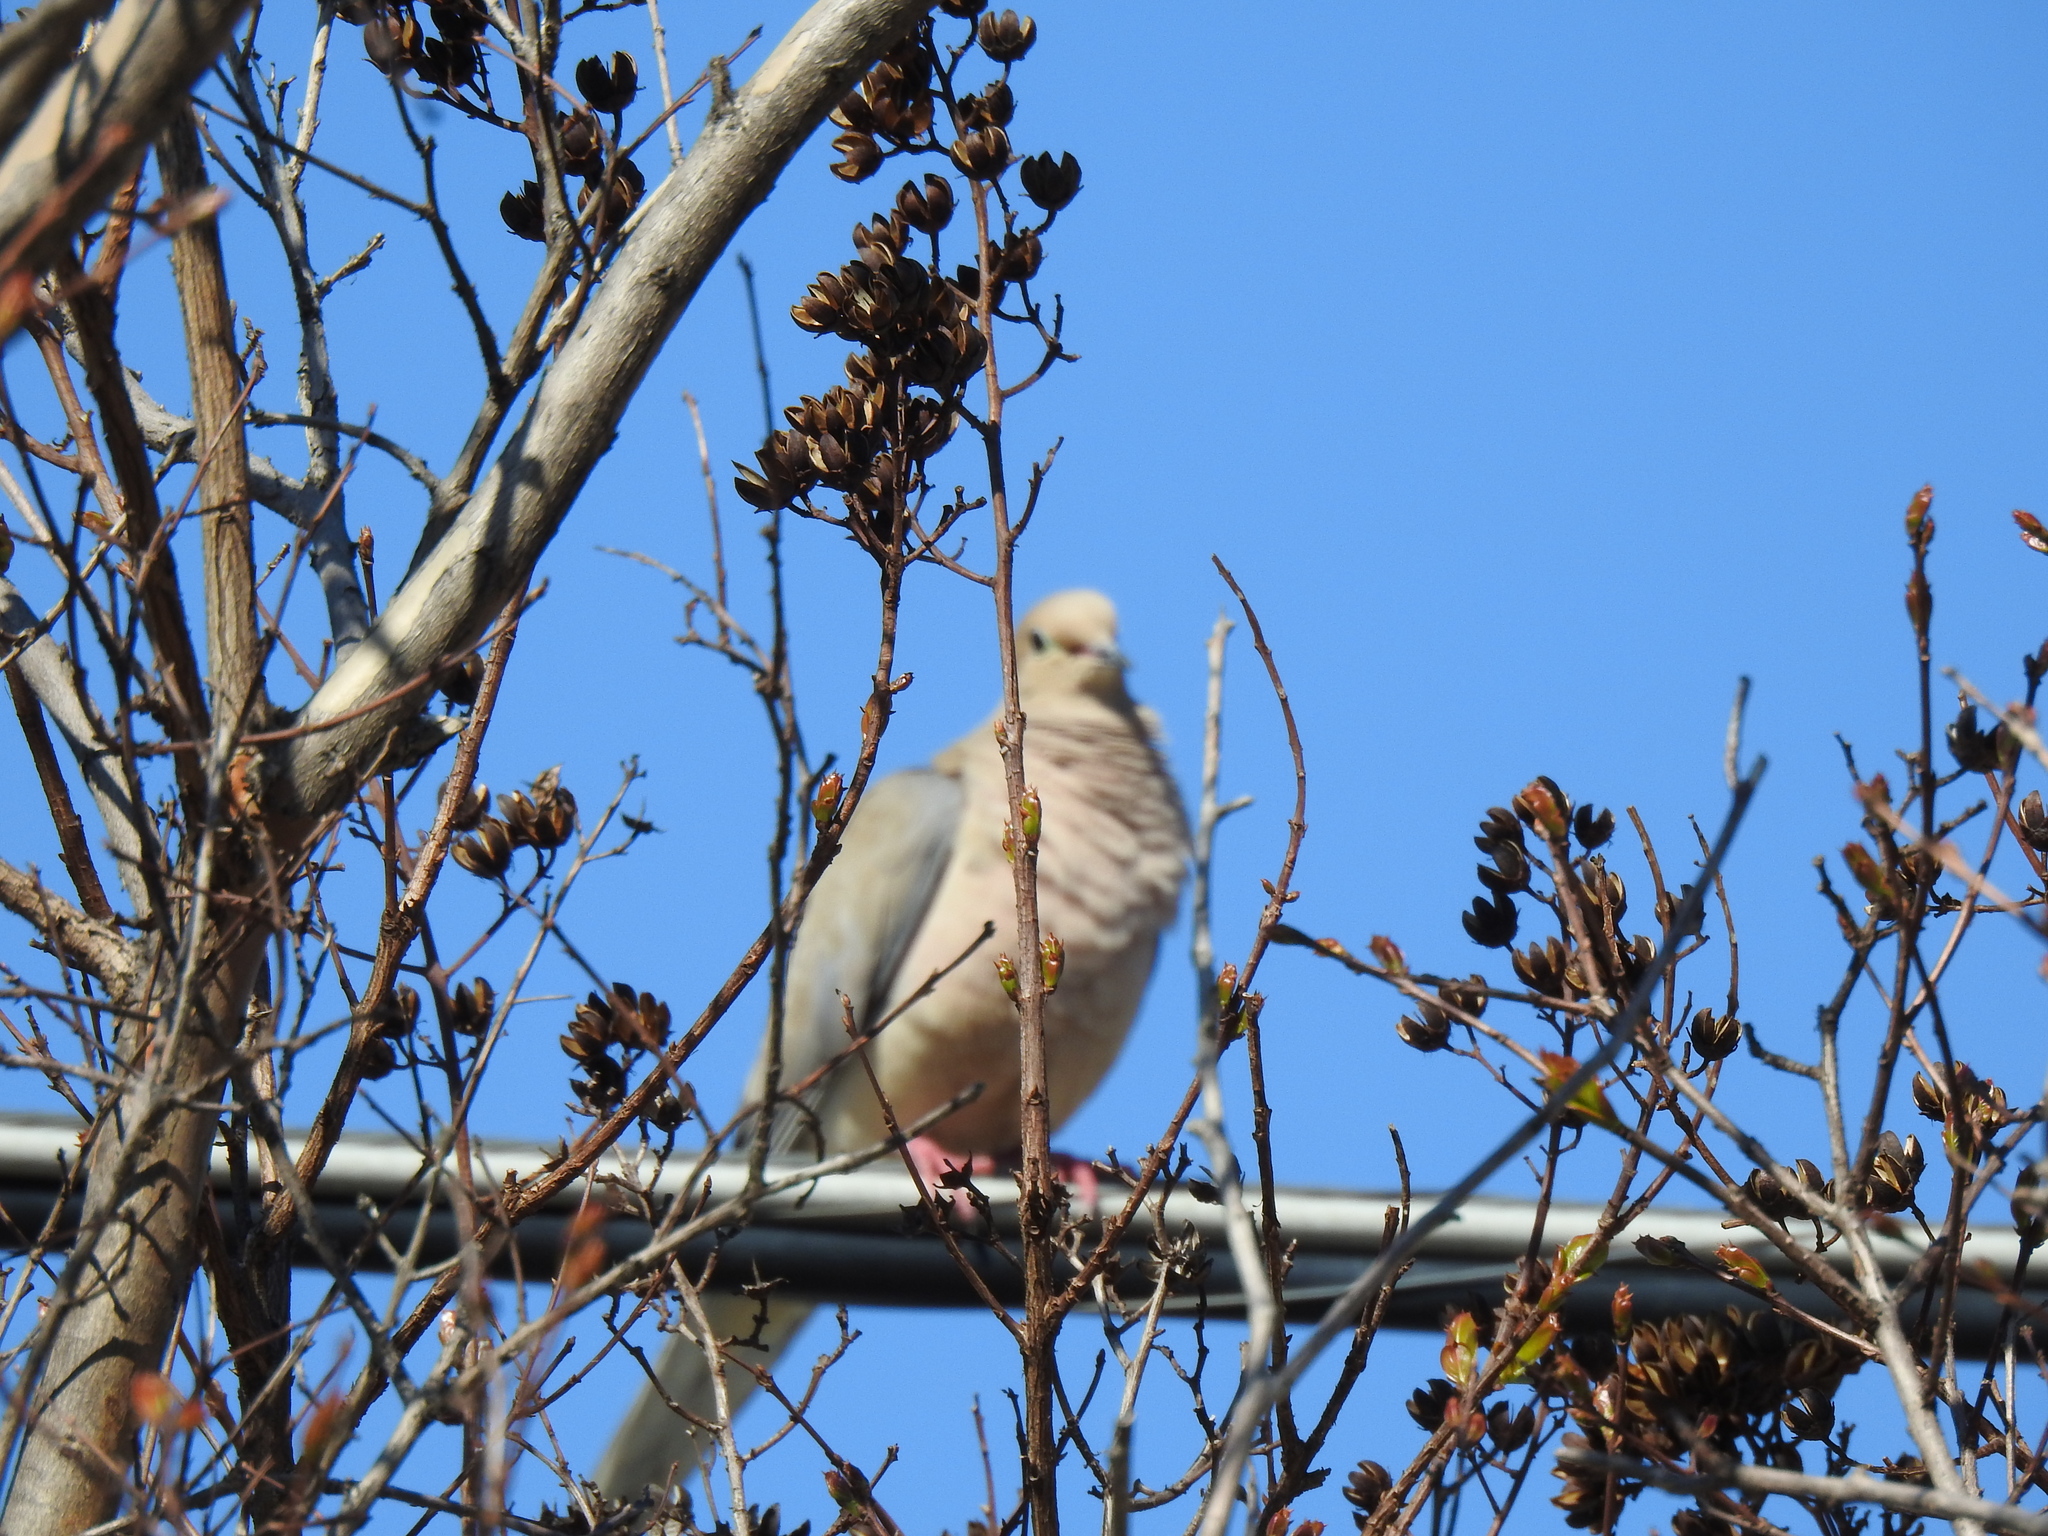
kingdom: Animalia
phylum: Chordata
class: Aves
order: Columbiformes
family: Columbidae
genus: Zenaida
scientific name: Zenaida macroura
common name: Mourning dove
